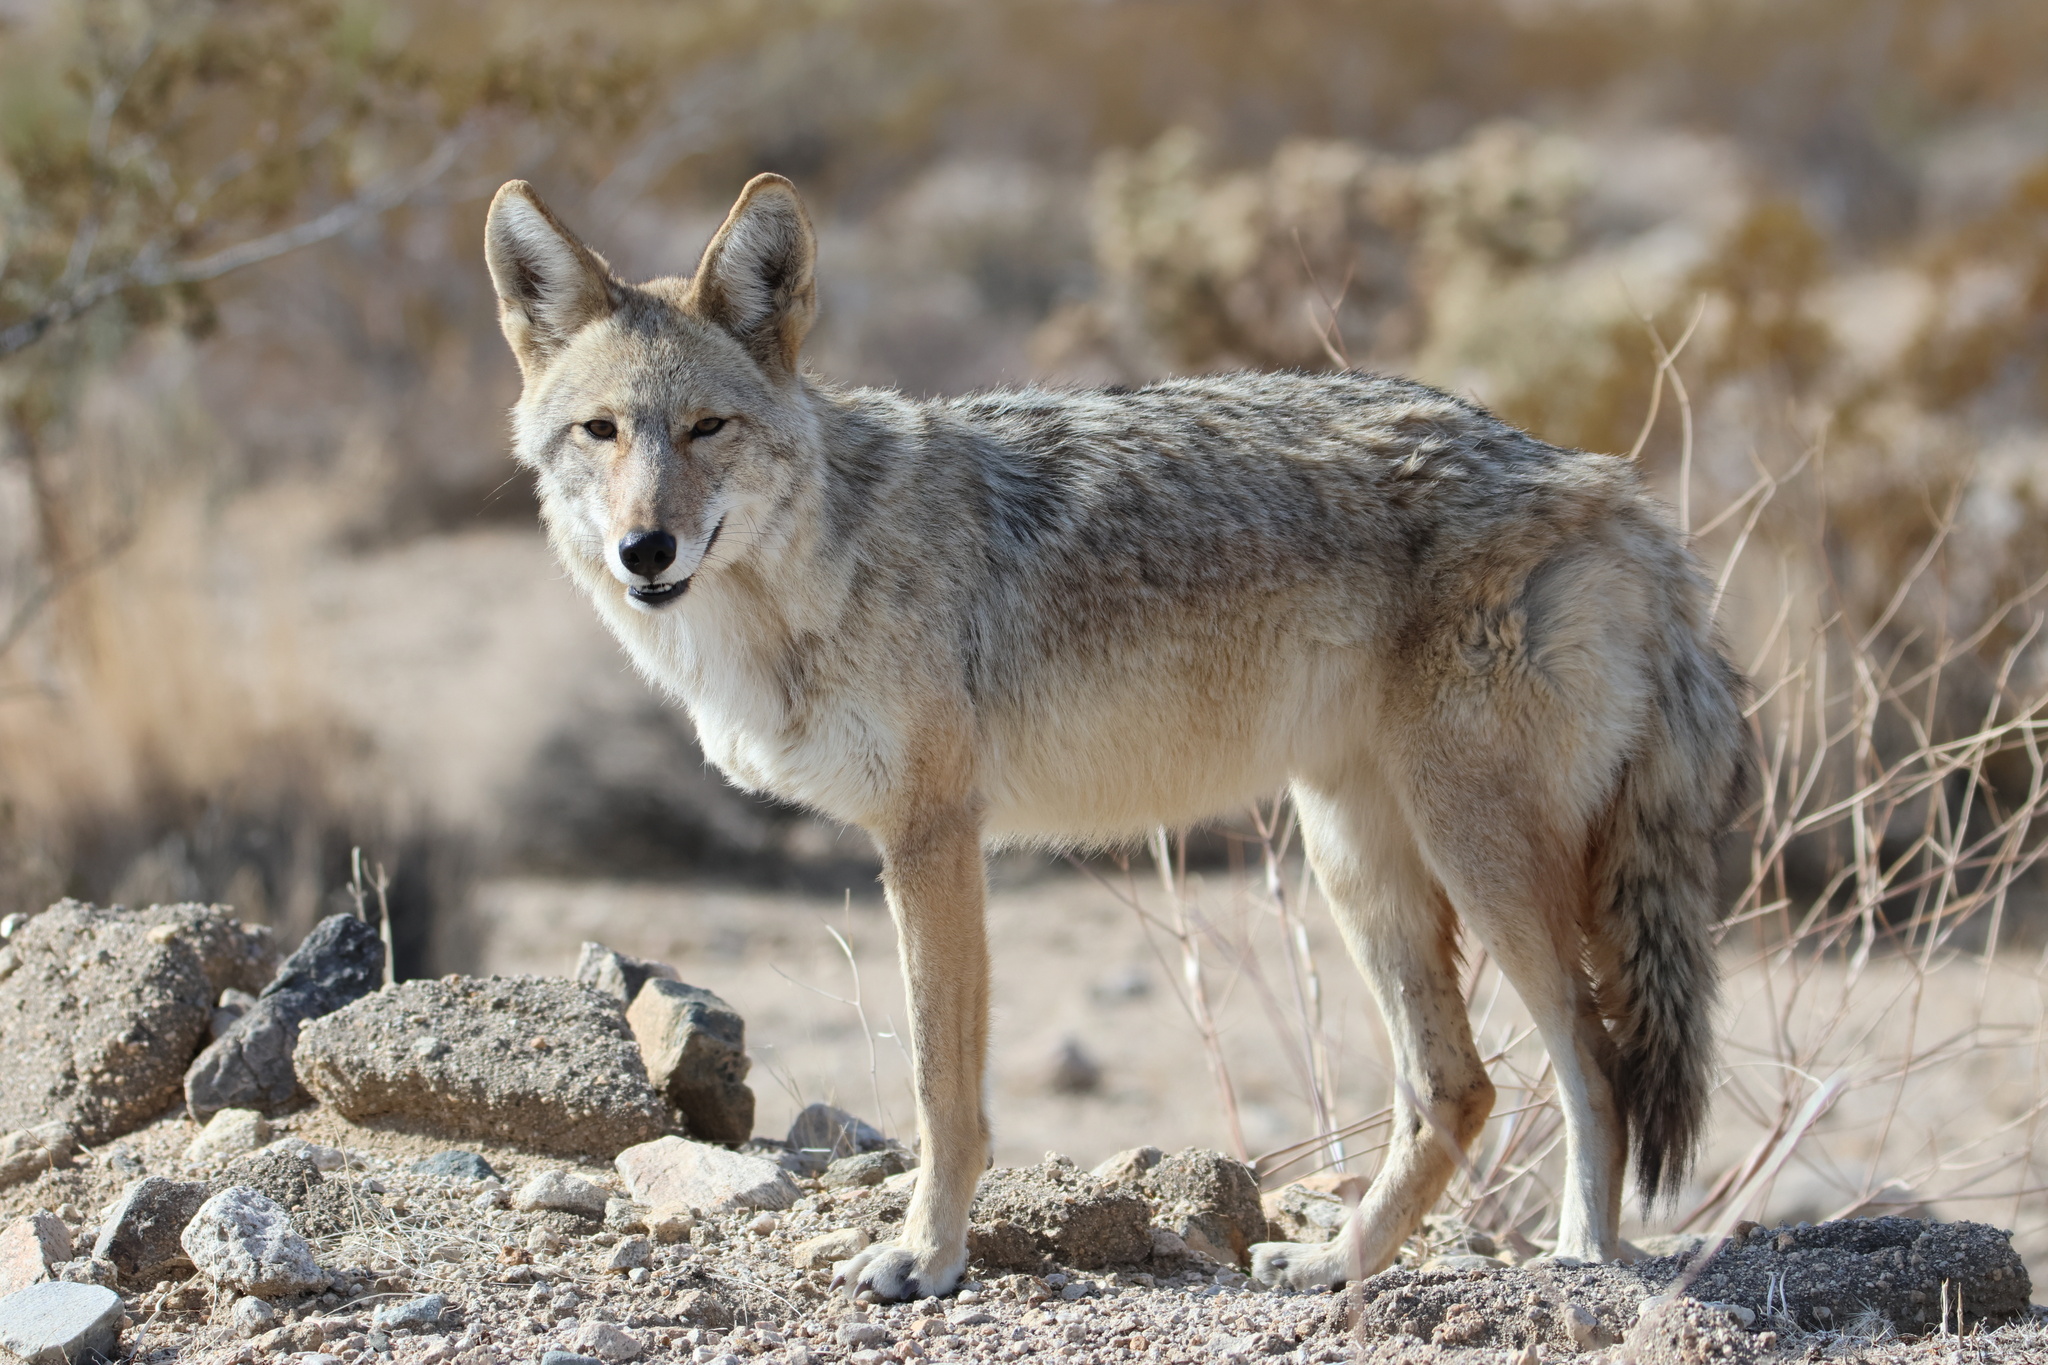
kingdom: Animalia
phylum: Chordata
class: Mammalia
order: Carnivora
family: Canidae
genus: Canis
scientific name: Canis latrans
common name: Coyote
